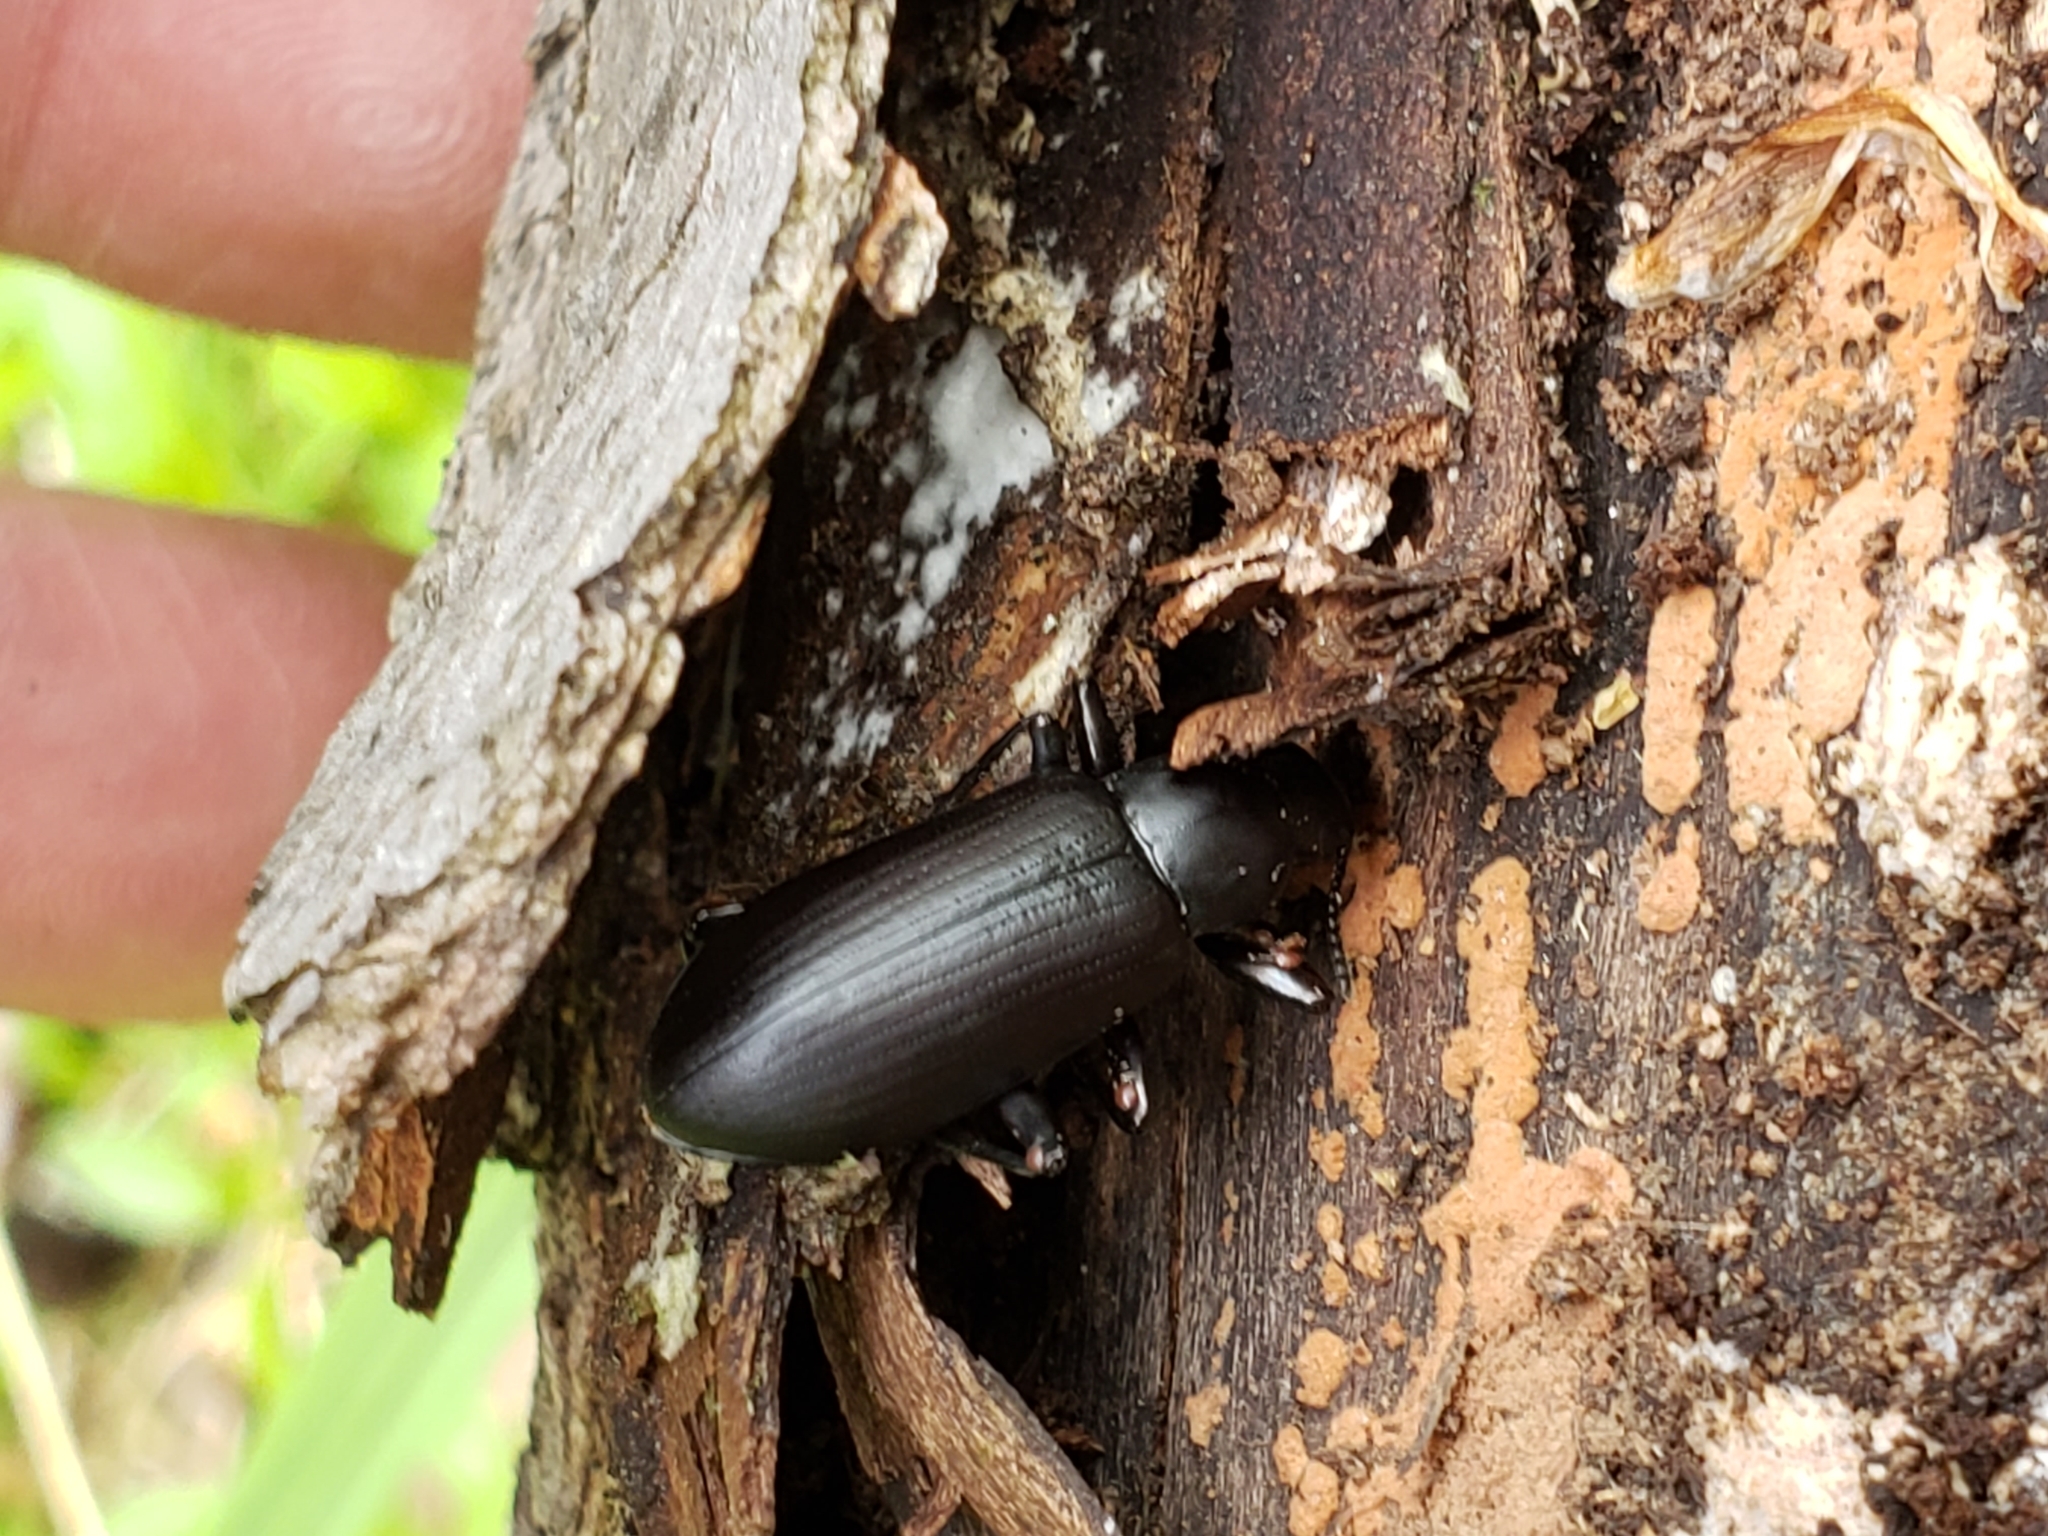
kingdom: Animalia
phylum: Arthropoda
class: Insecta
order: Coleoptera
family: Tenebrionidae
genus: Alobates
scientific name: Alobates
